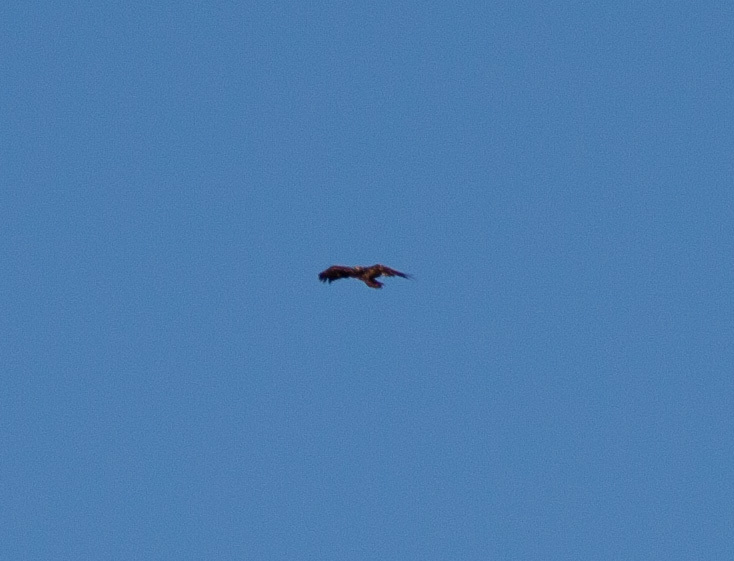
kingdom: Animalia
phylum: Chordata
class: Aves
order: Accipitriformes
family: Accipitridae
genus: Haliaeetus
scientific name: Haliaeetus leucocephalus
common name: Bald eagle
